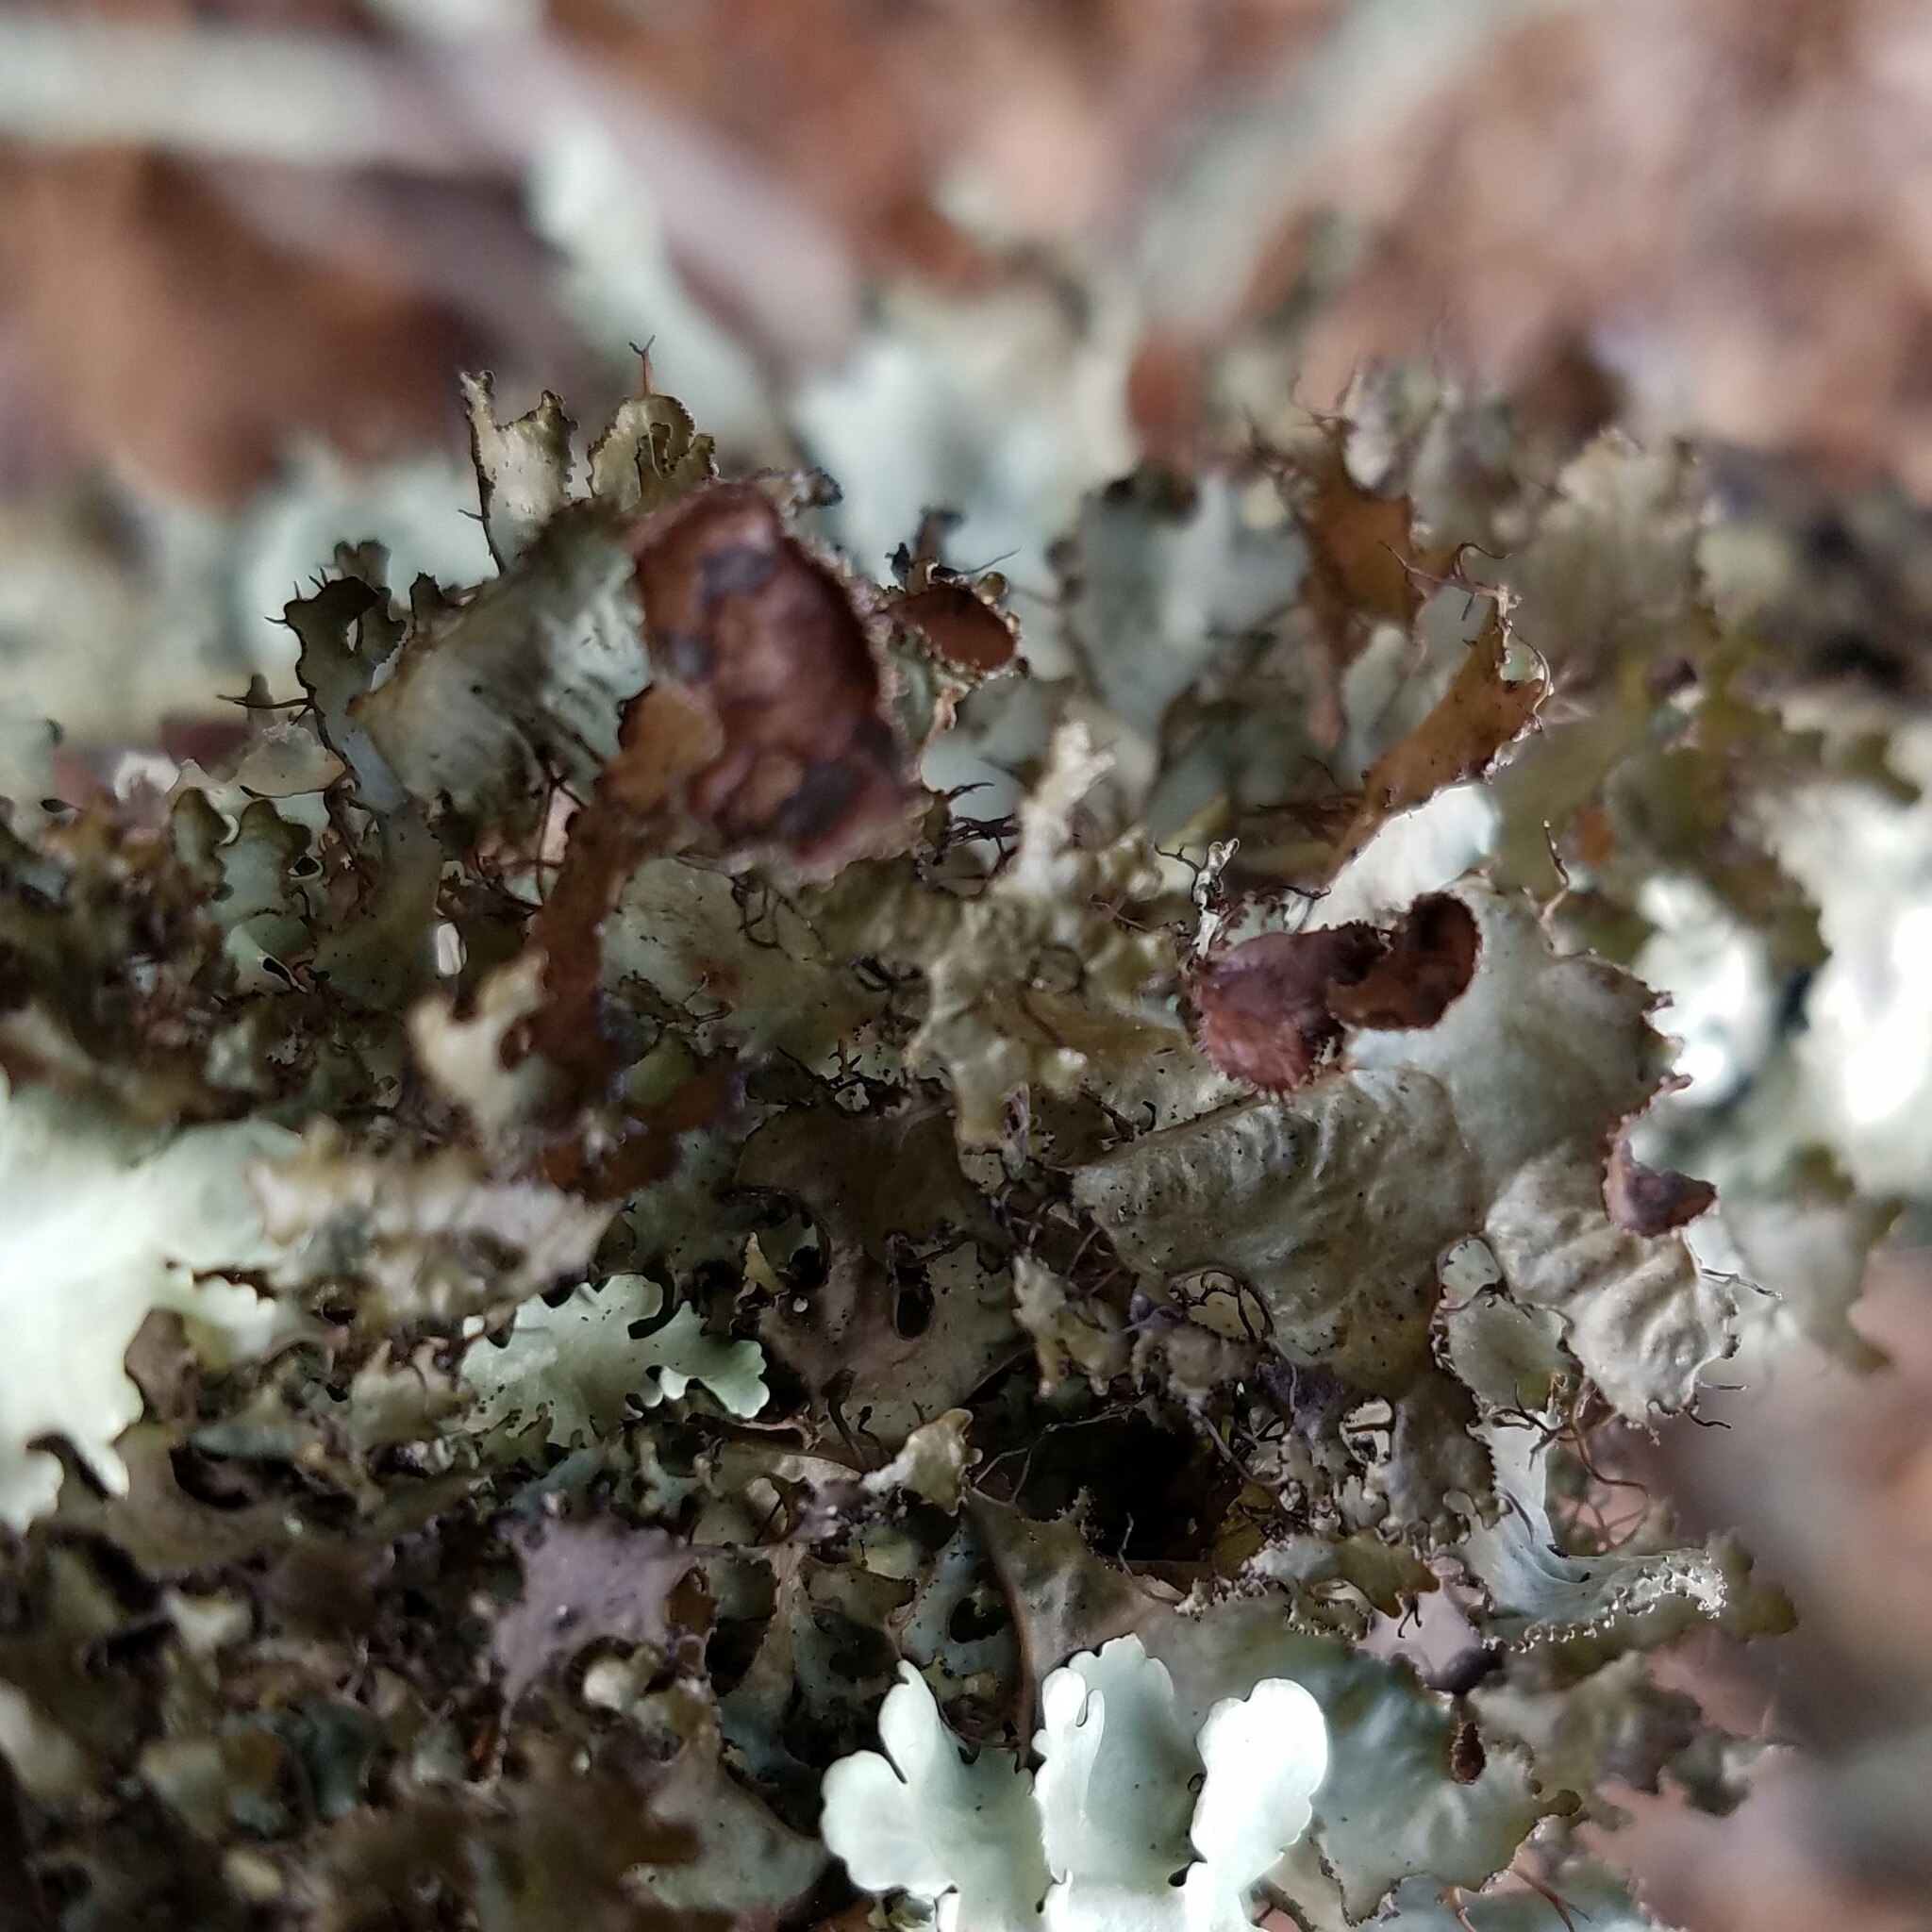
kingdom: Fungi
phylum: Ascomycota
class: Lecanoromycetes
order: Lecanorales
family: Parmeliaceae
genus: Tuckermannopsis
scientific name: Tuckermannopsis ciliaris
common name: Ciliate wrinkle-lichen
